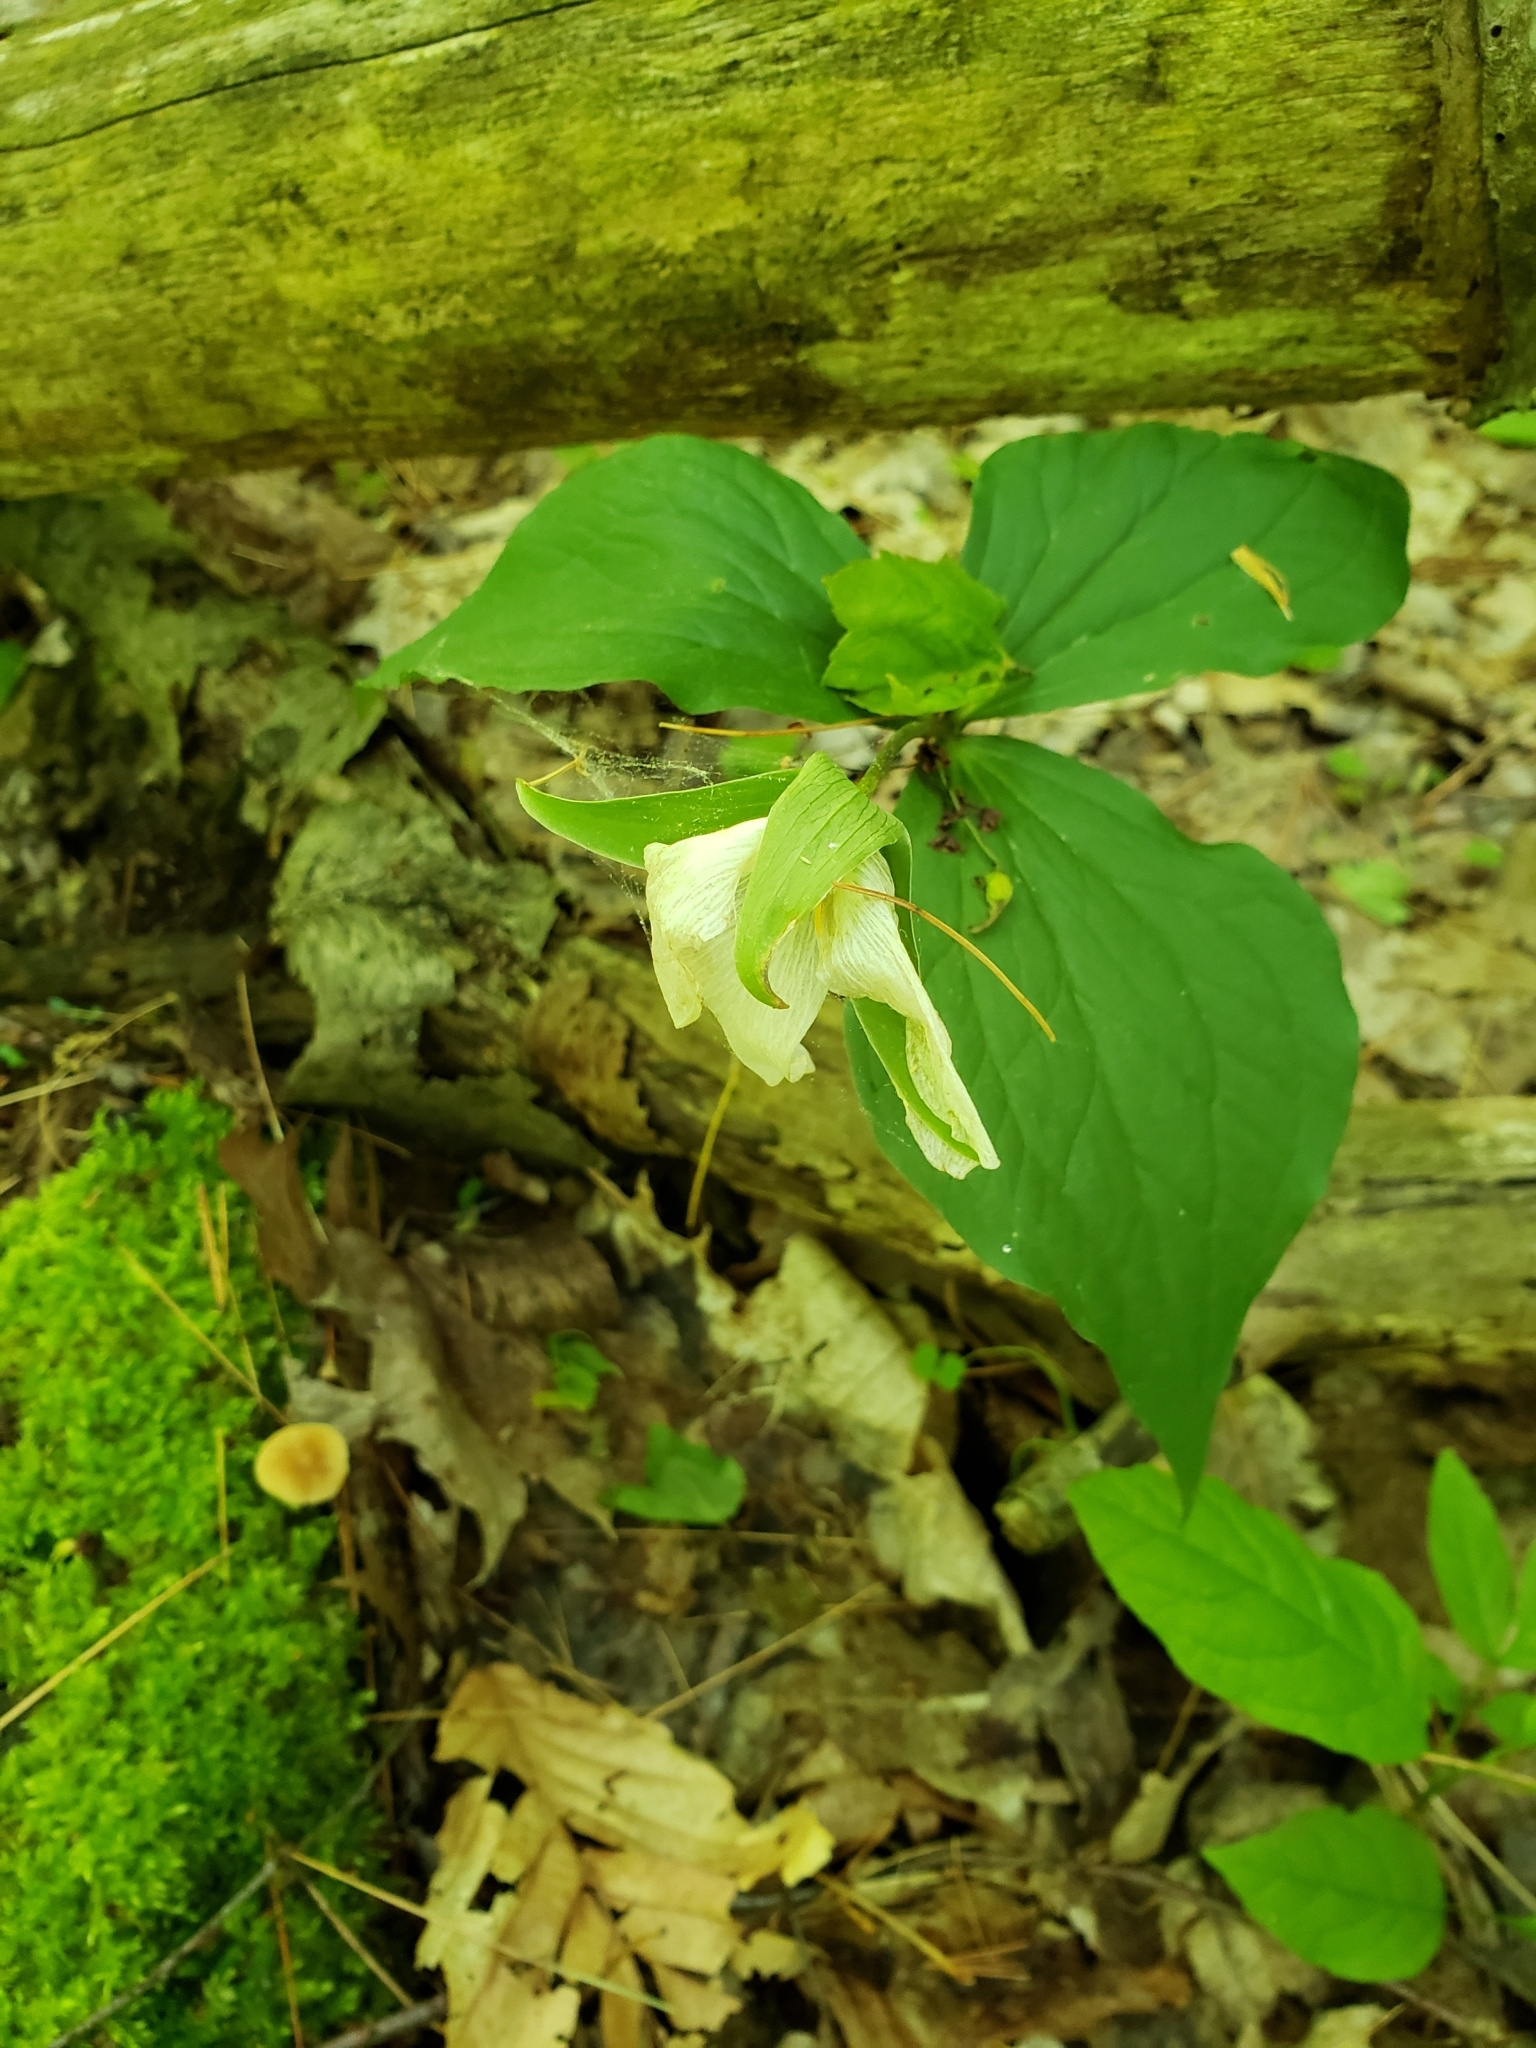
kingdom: Plantae
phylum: Tracheophyta
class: Liliopsida
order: Liliales
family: Melanthiaceae
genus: Trillium
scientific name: Trillium grandiflorum
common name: Great white trillium
